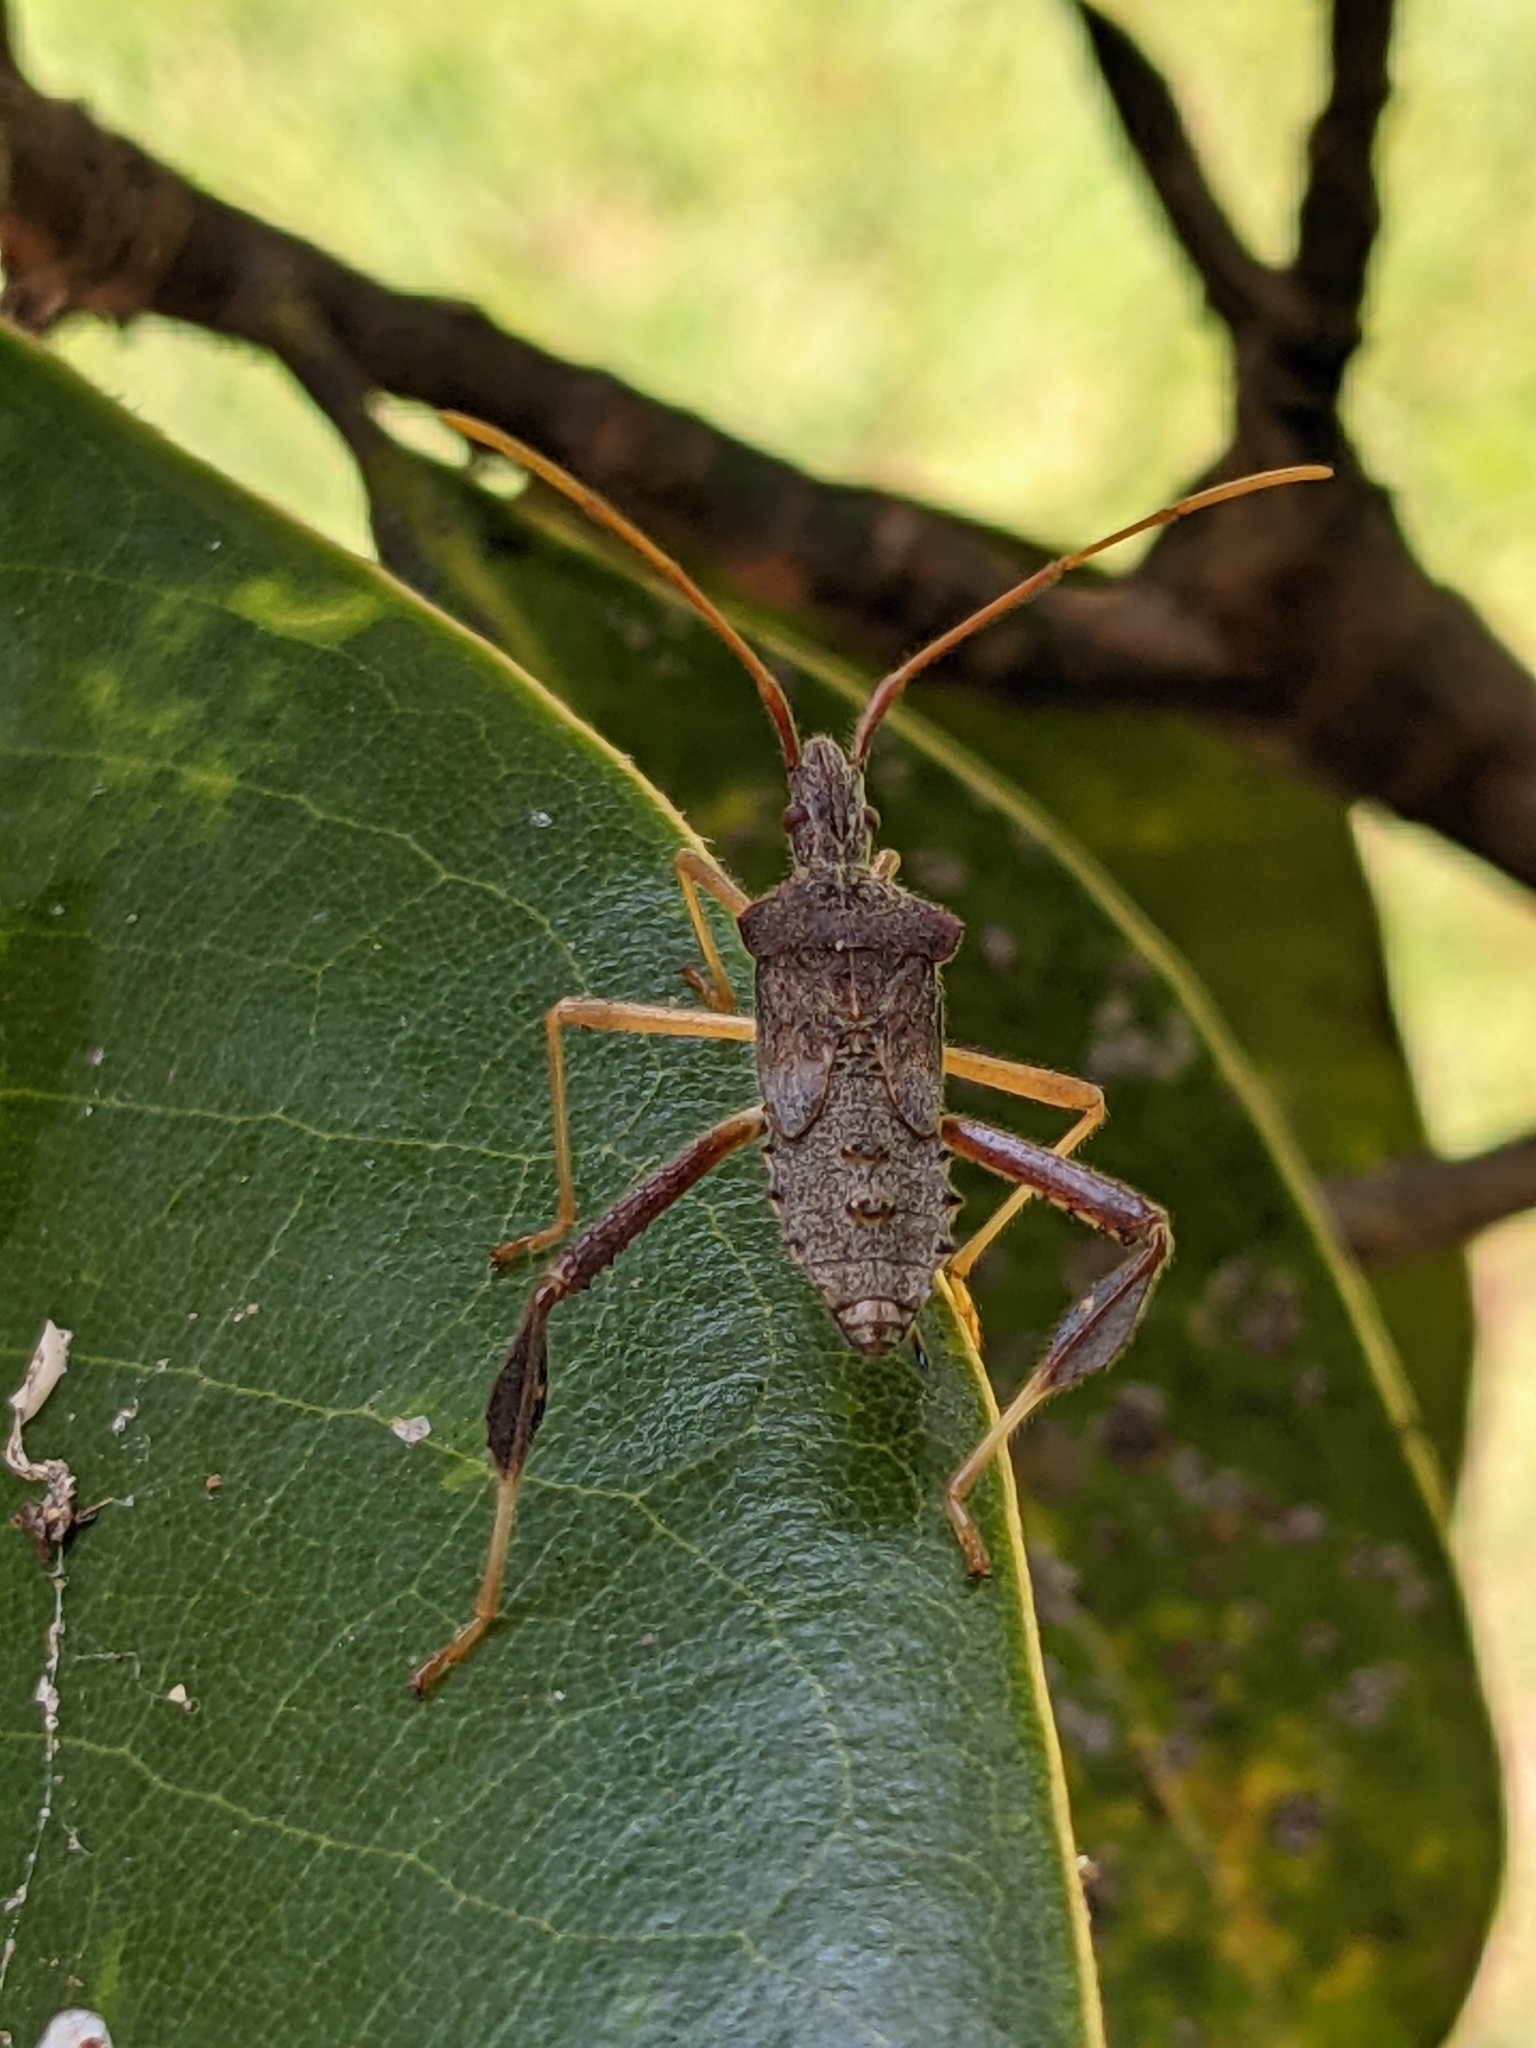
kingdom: Animalia
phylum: Arthropoda
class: Insecta
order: Hemiptera
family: Coreidae
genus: Leptoglossus
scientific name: Leptoglossus fulvicornis
